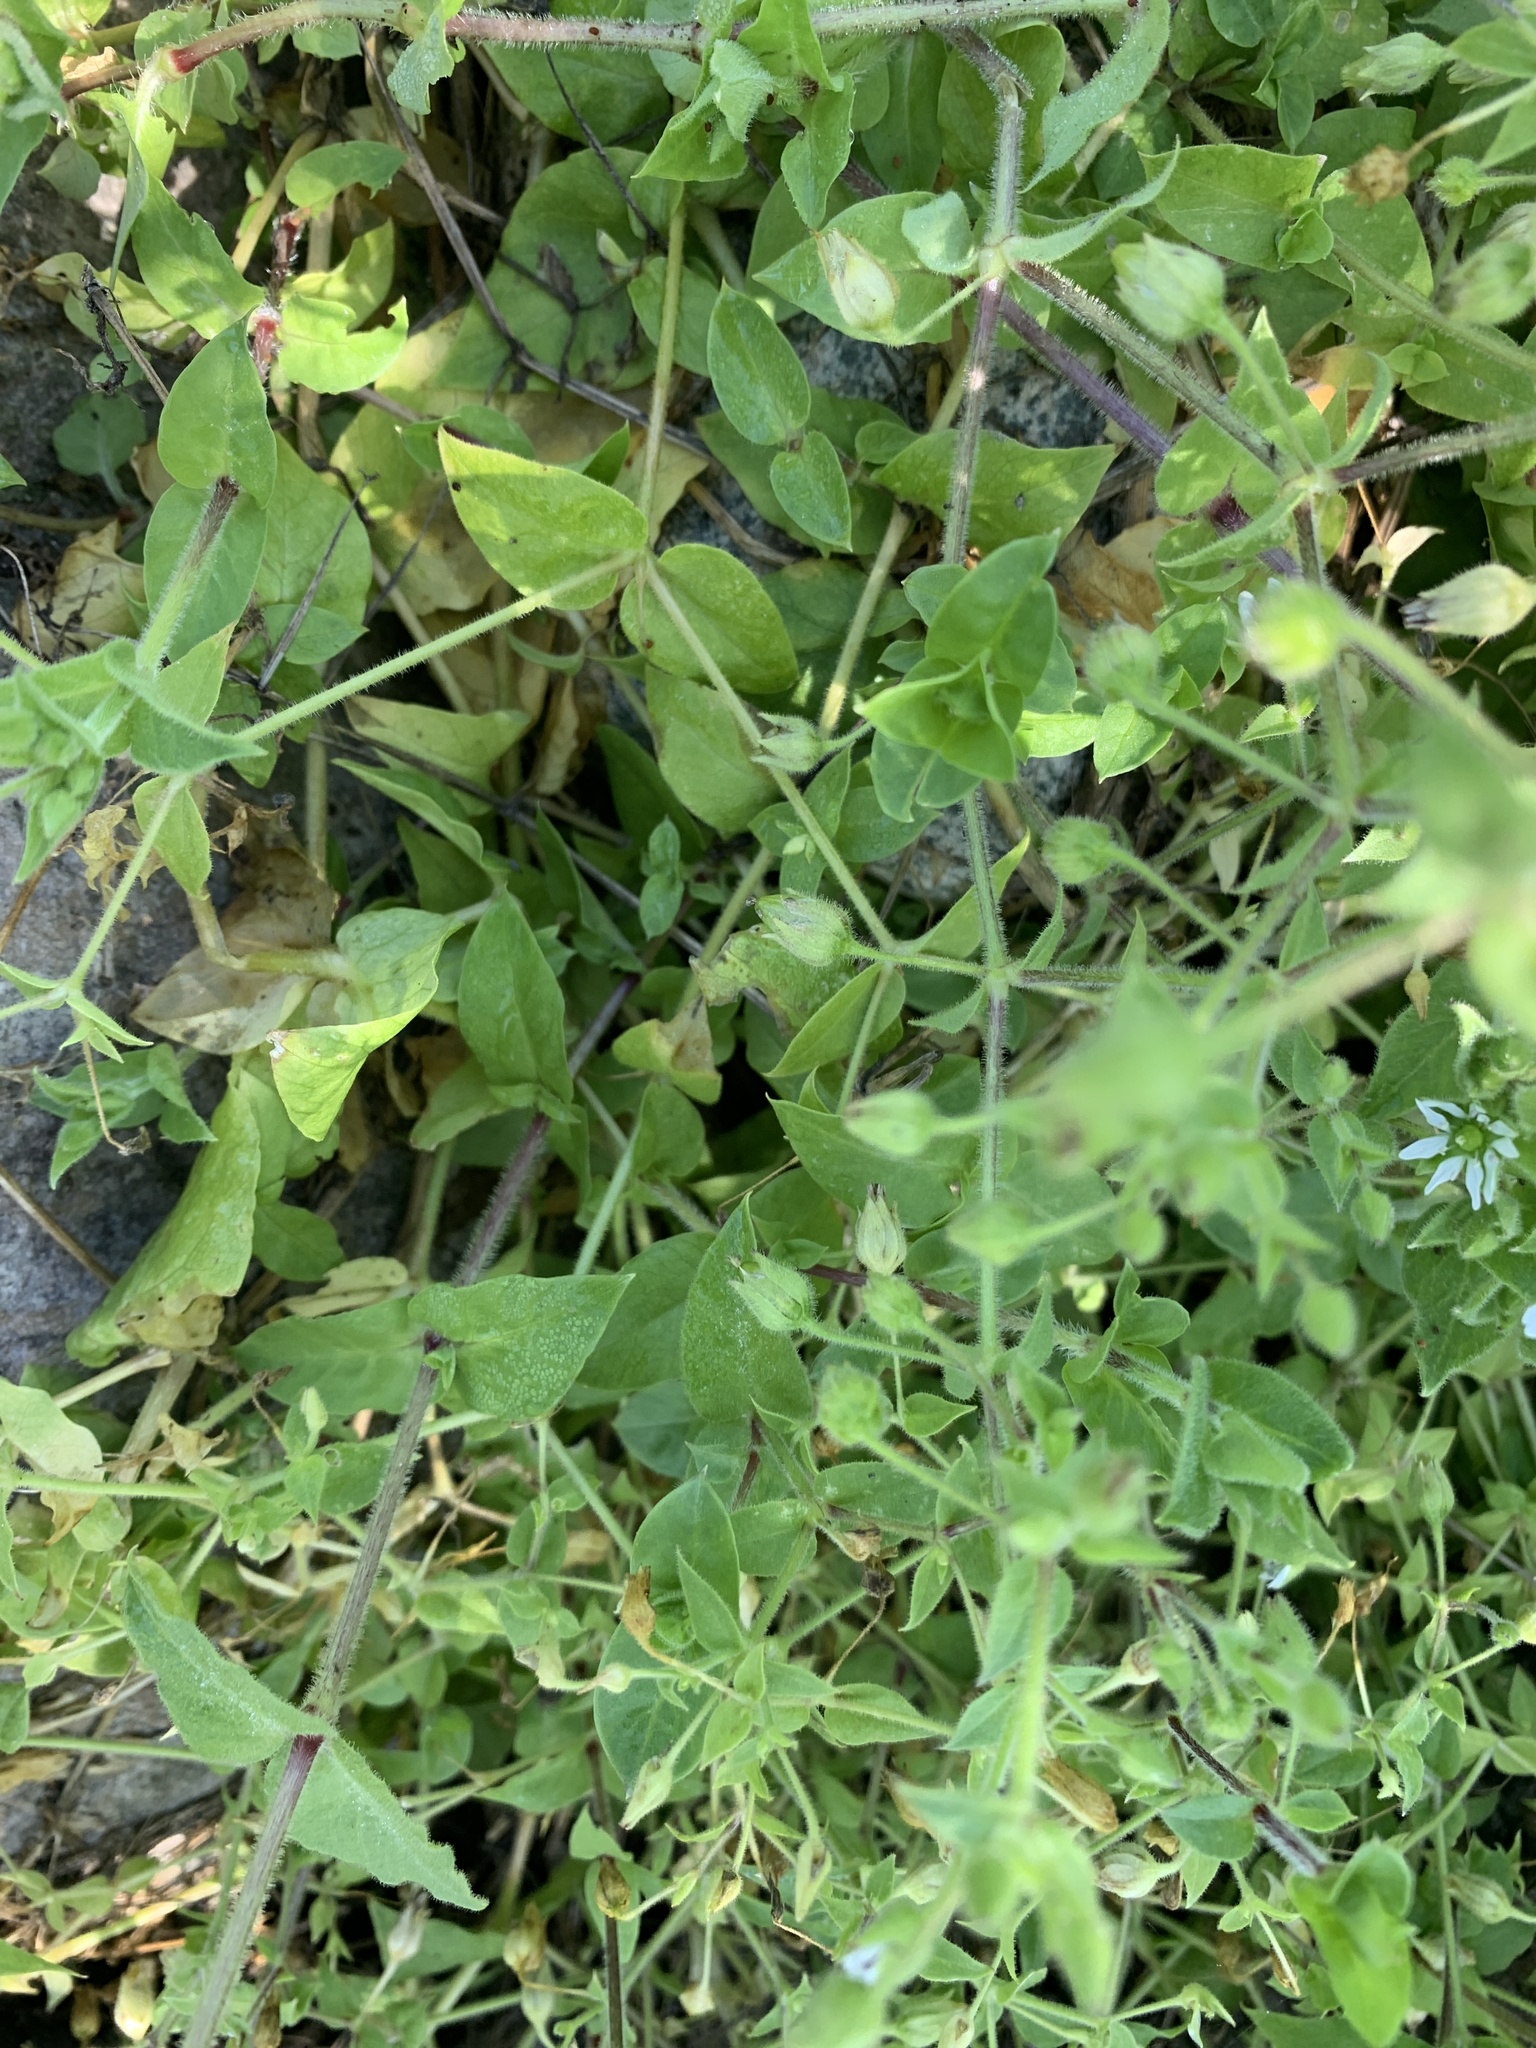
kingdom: Plantae
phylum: Tracheophyta
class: Magnoliopsida
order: Caryophyllales
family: Caryophyllaceae
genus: Stellaria
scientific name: Stellaria aquatica
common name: Water chickweed
